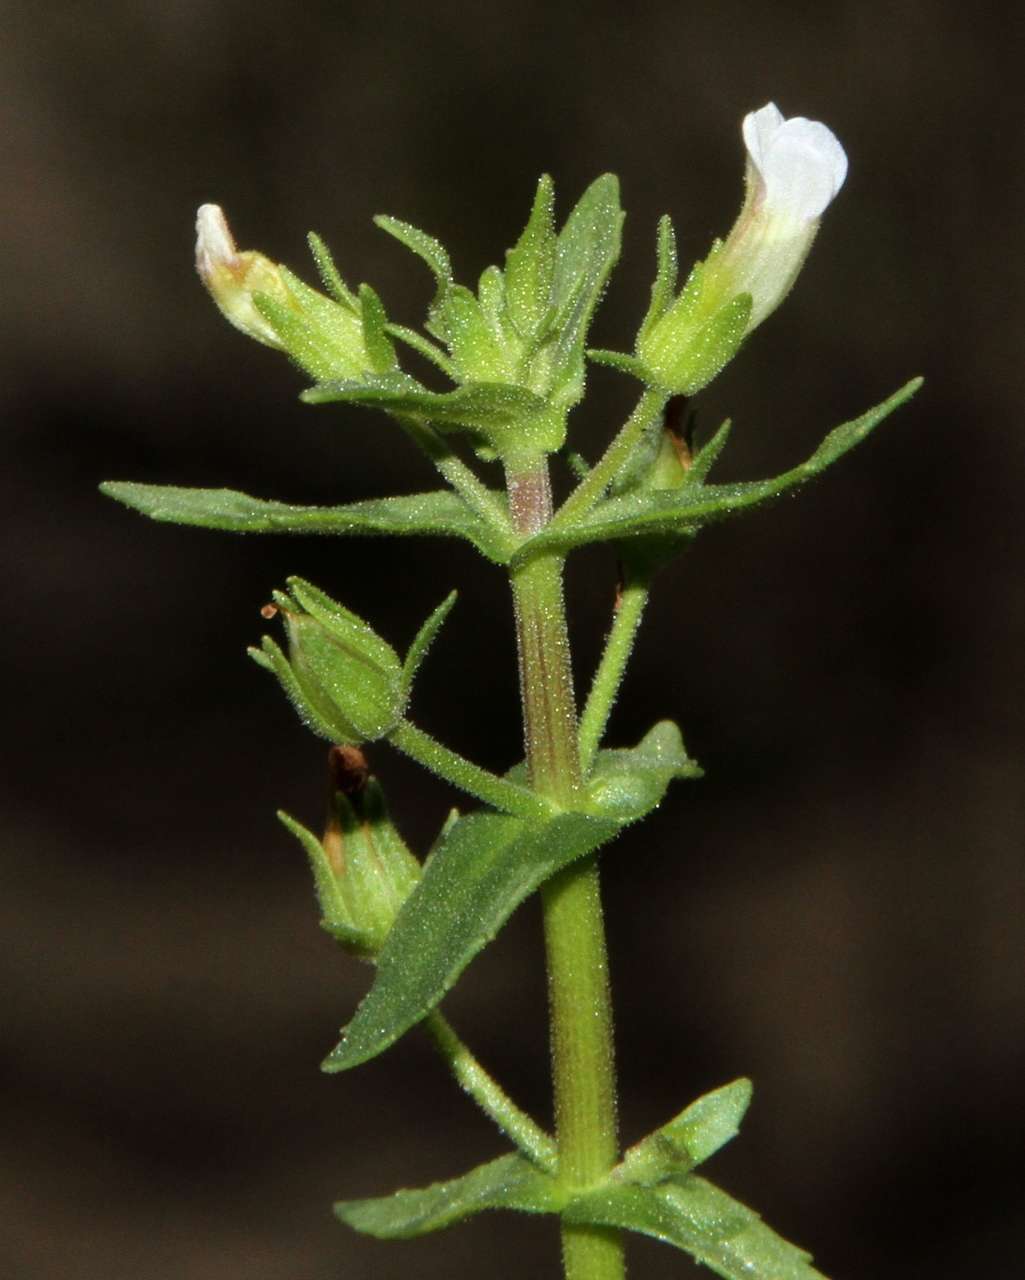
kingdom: Plantae
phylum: Tracheophyta
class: Magnoliopsida
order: Lamiales
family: Plantaginaceae
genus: Gratiola
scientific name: Gratiola pedunculata
